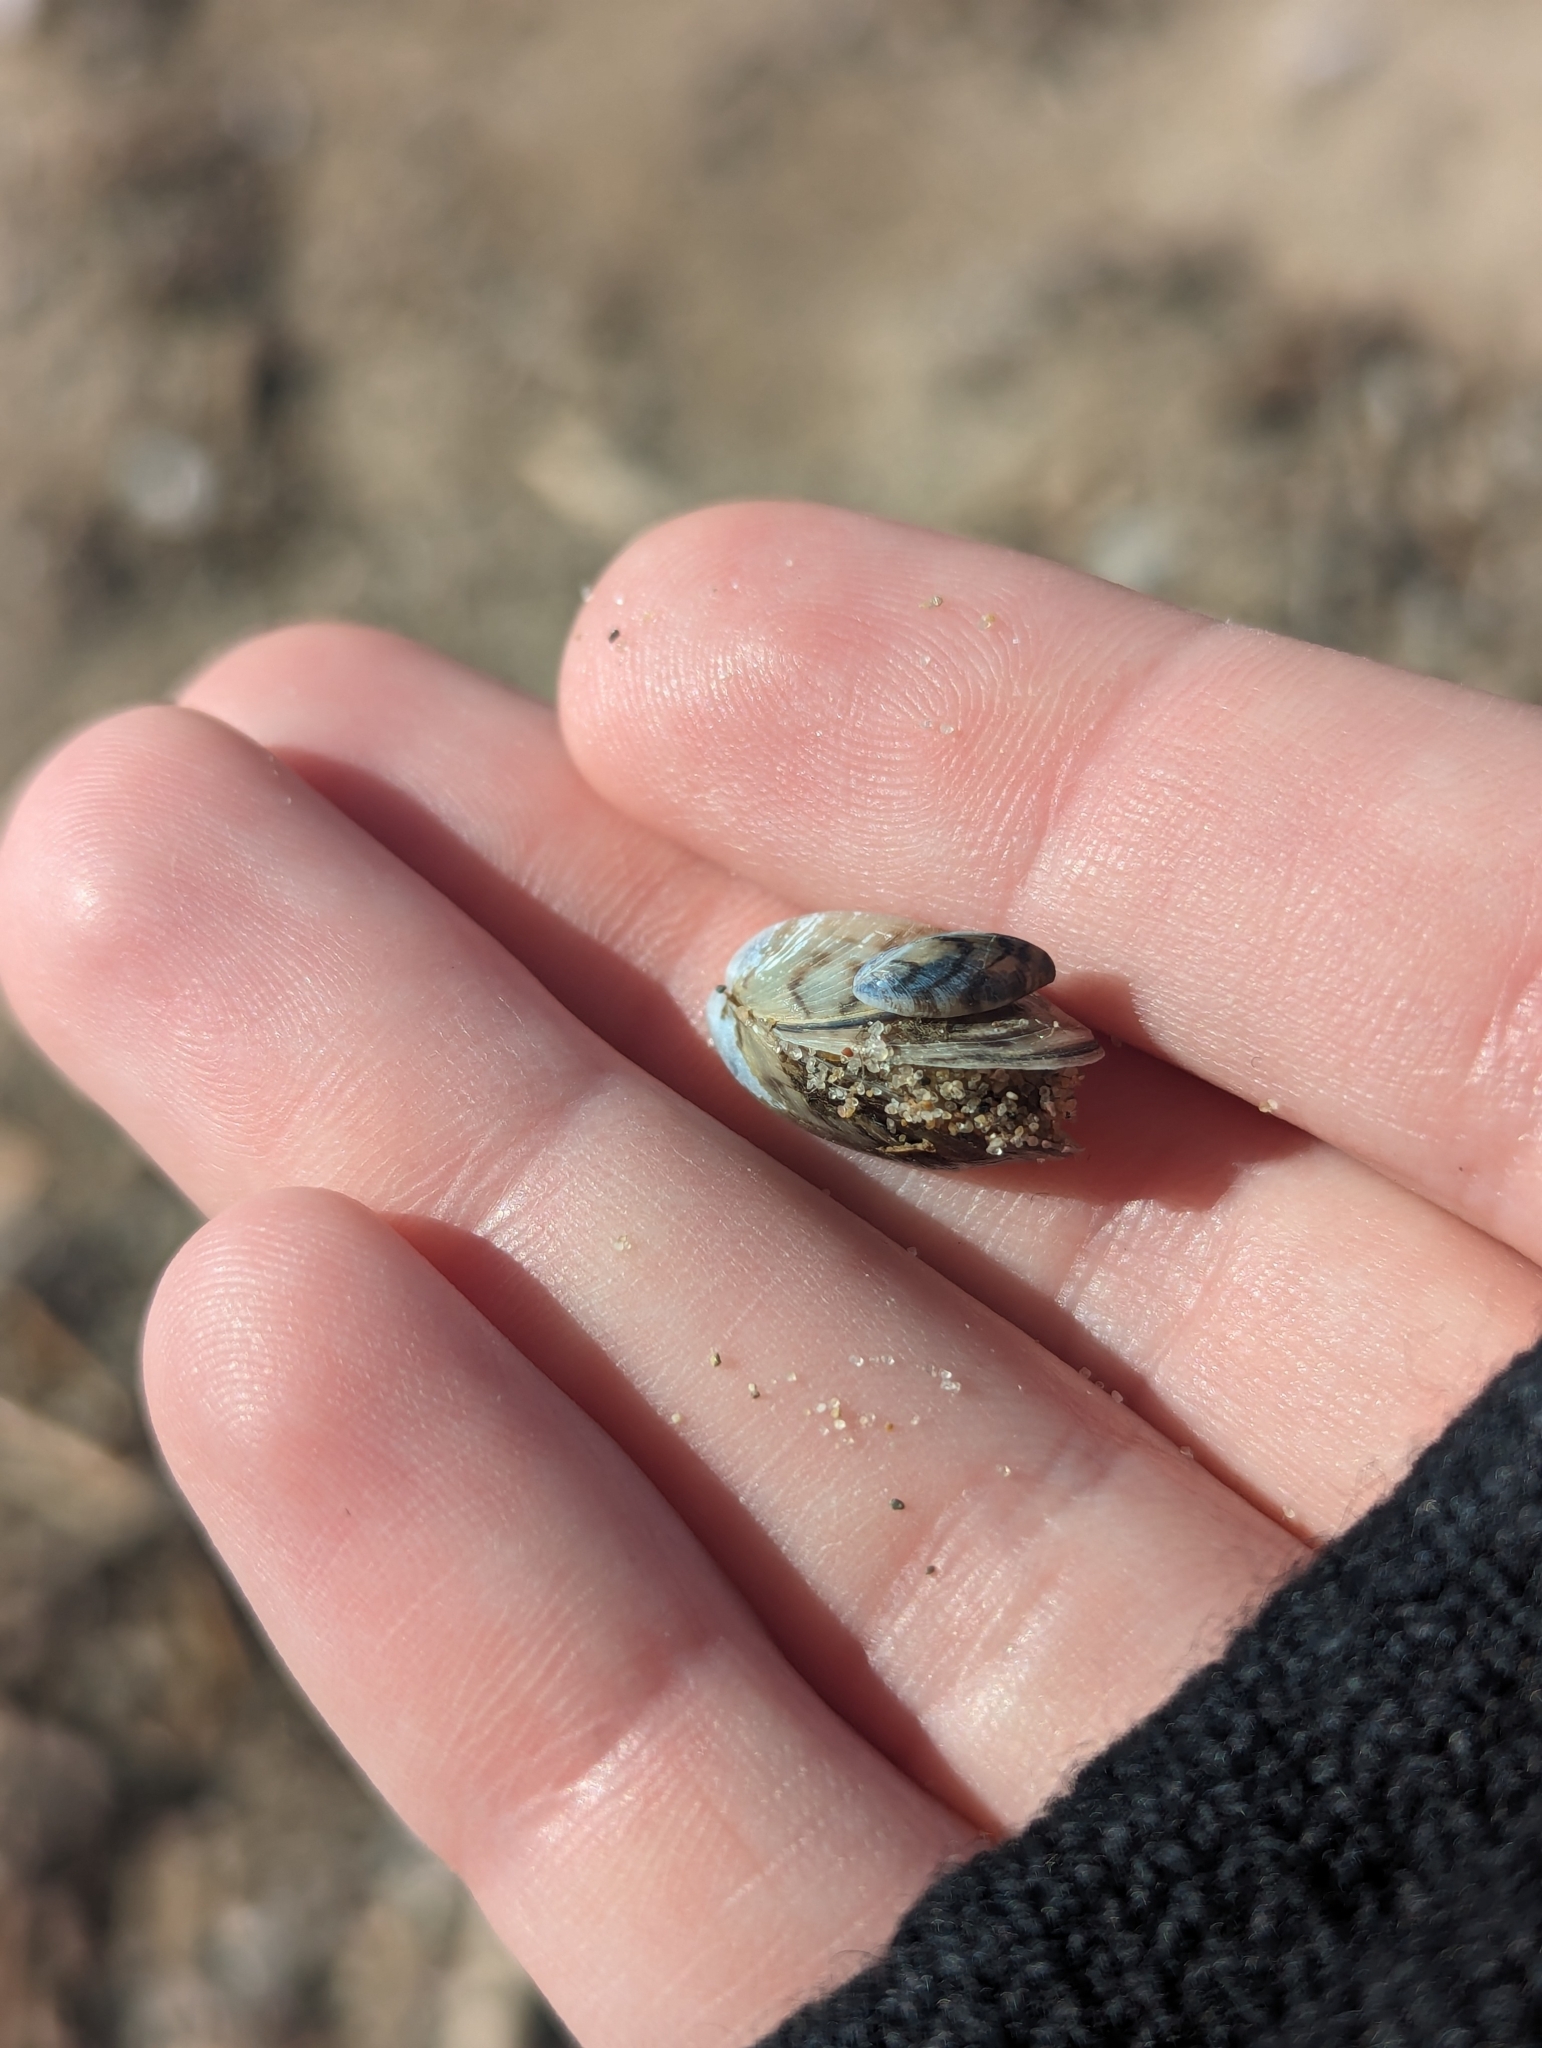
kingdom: Animalia
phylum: Mollusca
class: Bivalvia
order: Myida
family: Dreissenidae
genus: Dreissena
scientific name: Dreissena polymorpha
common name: Zebra mussel
